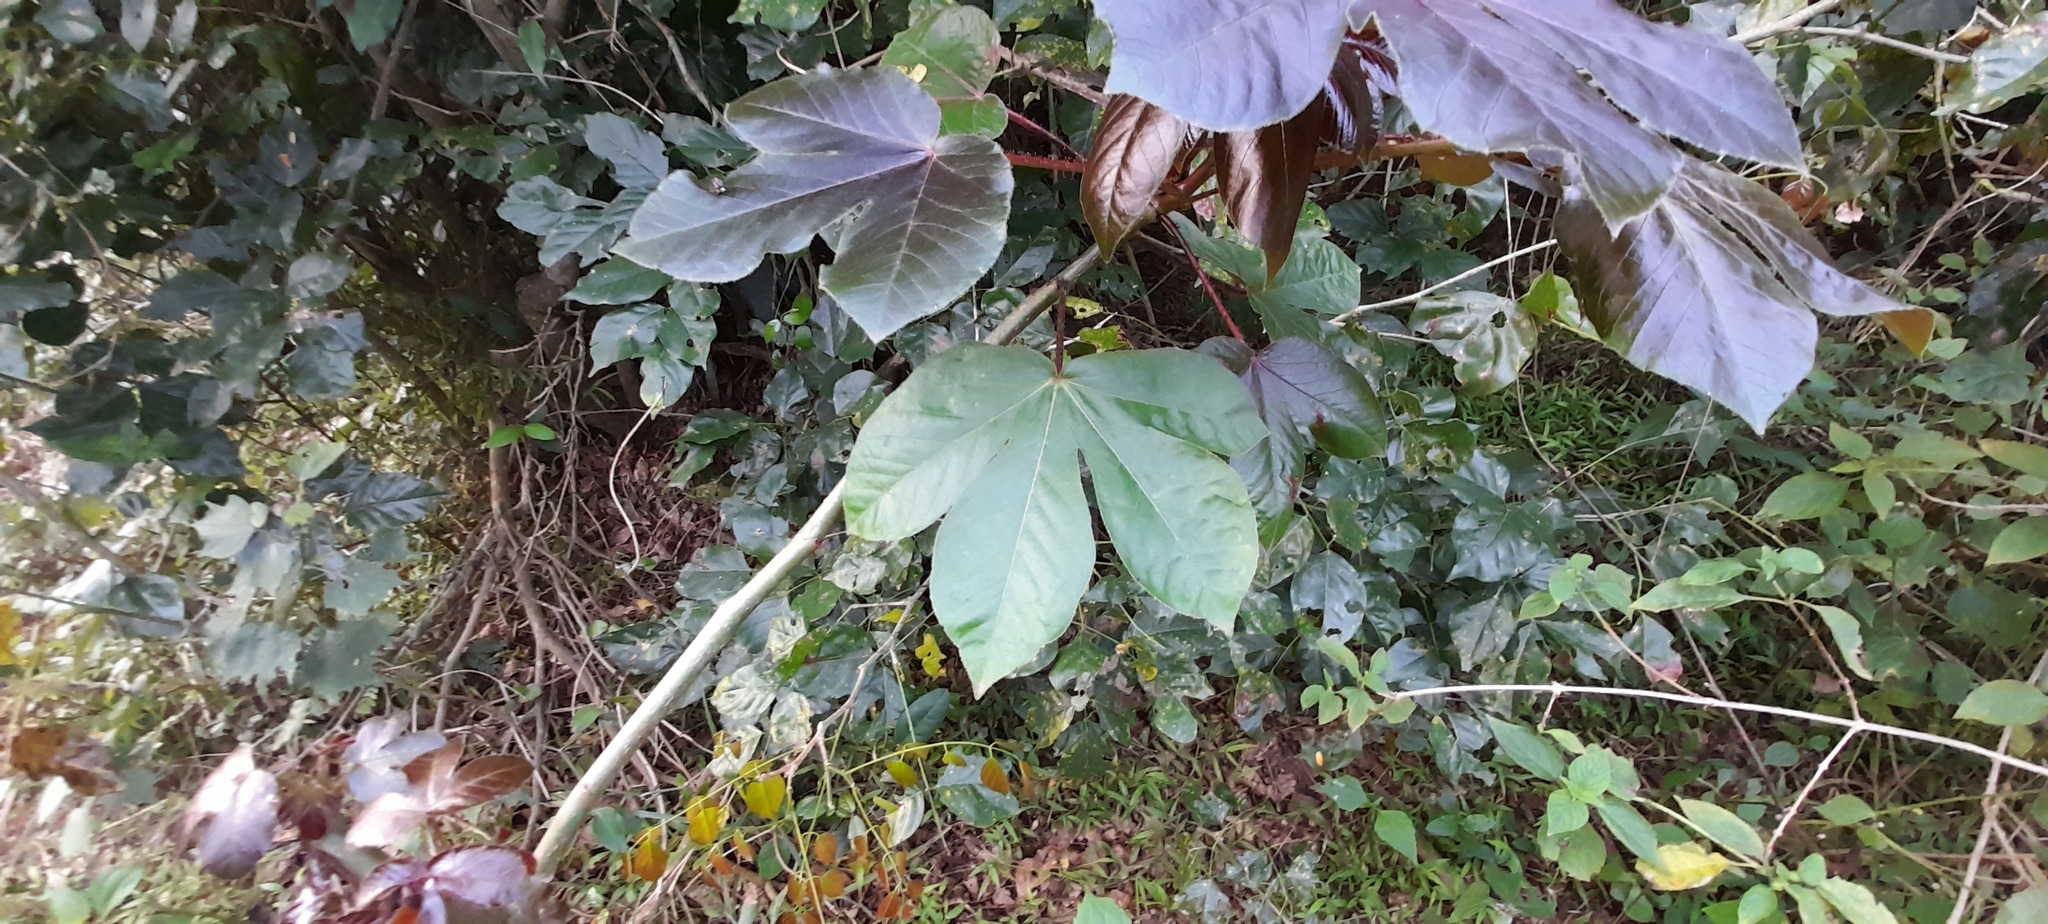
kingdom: Plantae
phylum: Tracheophyta
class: Magnoliopsida
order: Malpighiales
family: Euphorbiaceae
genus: Jatropha
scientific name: Jatropha gossypiifolia
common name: Bellyache bush
